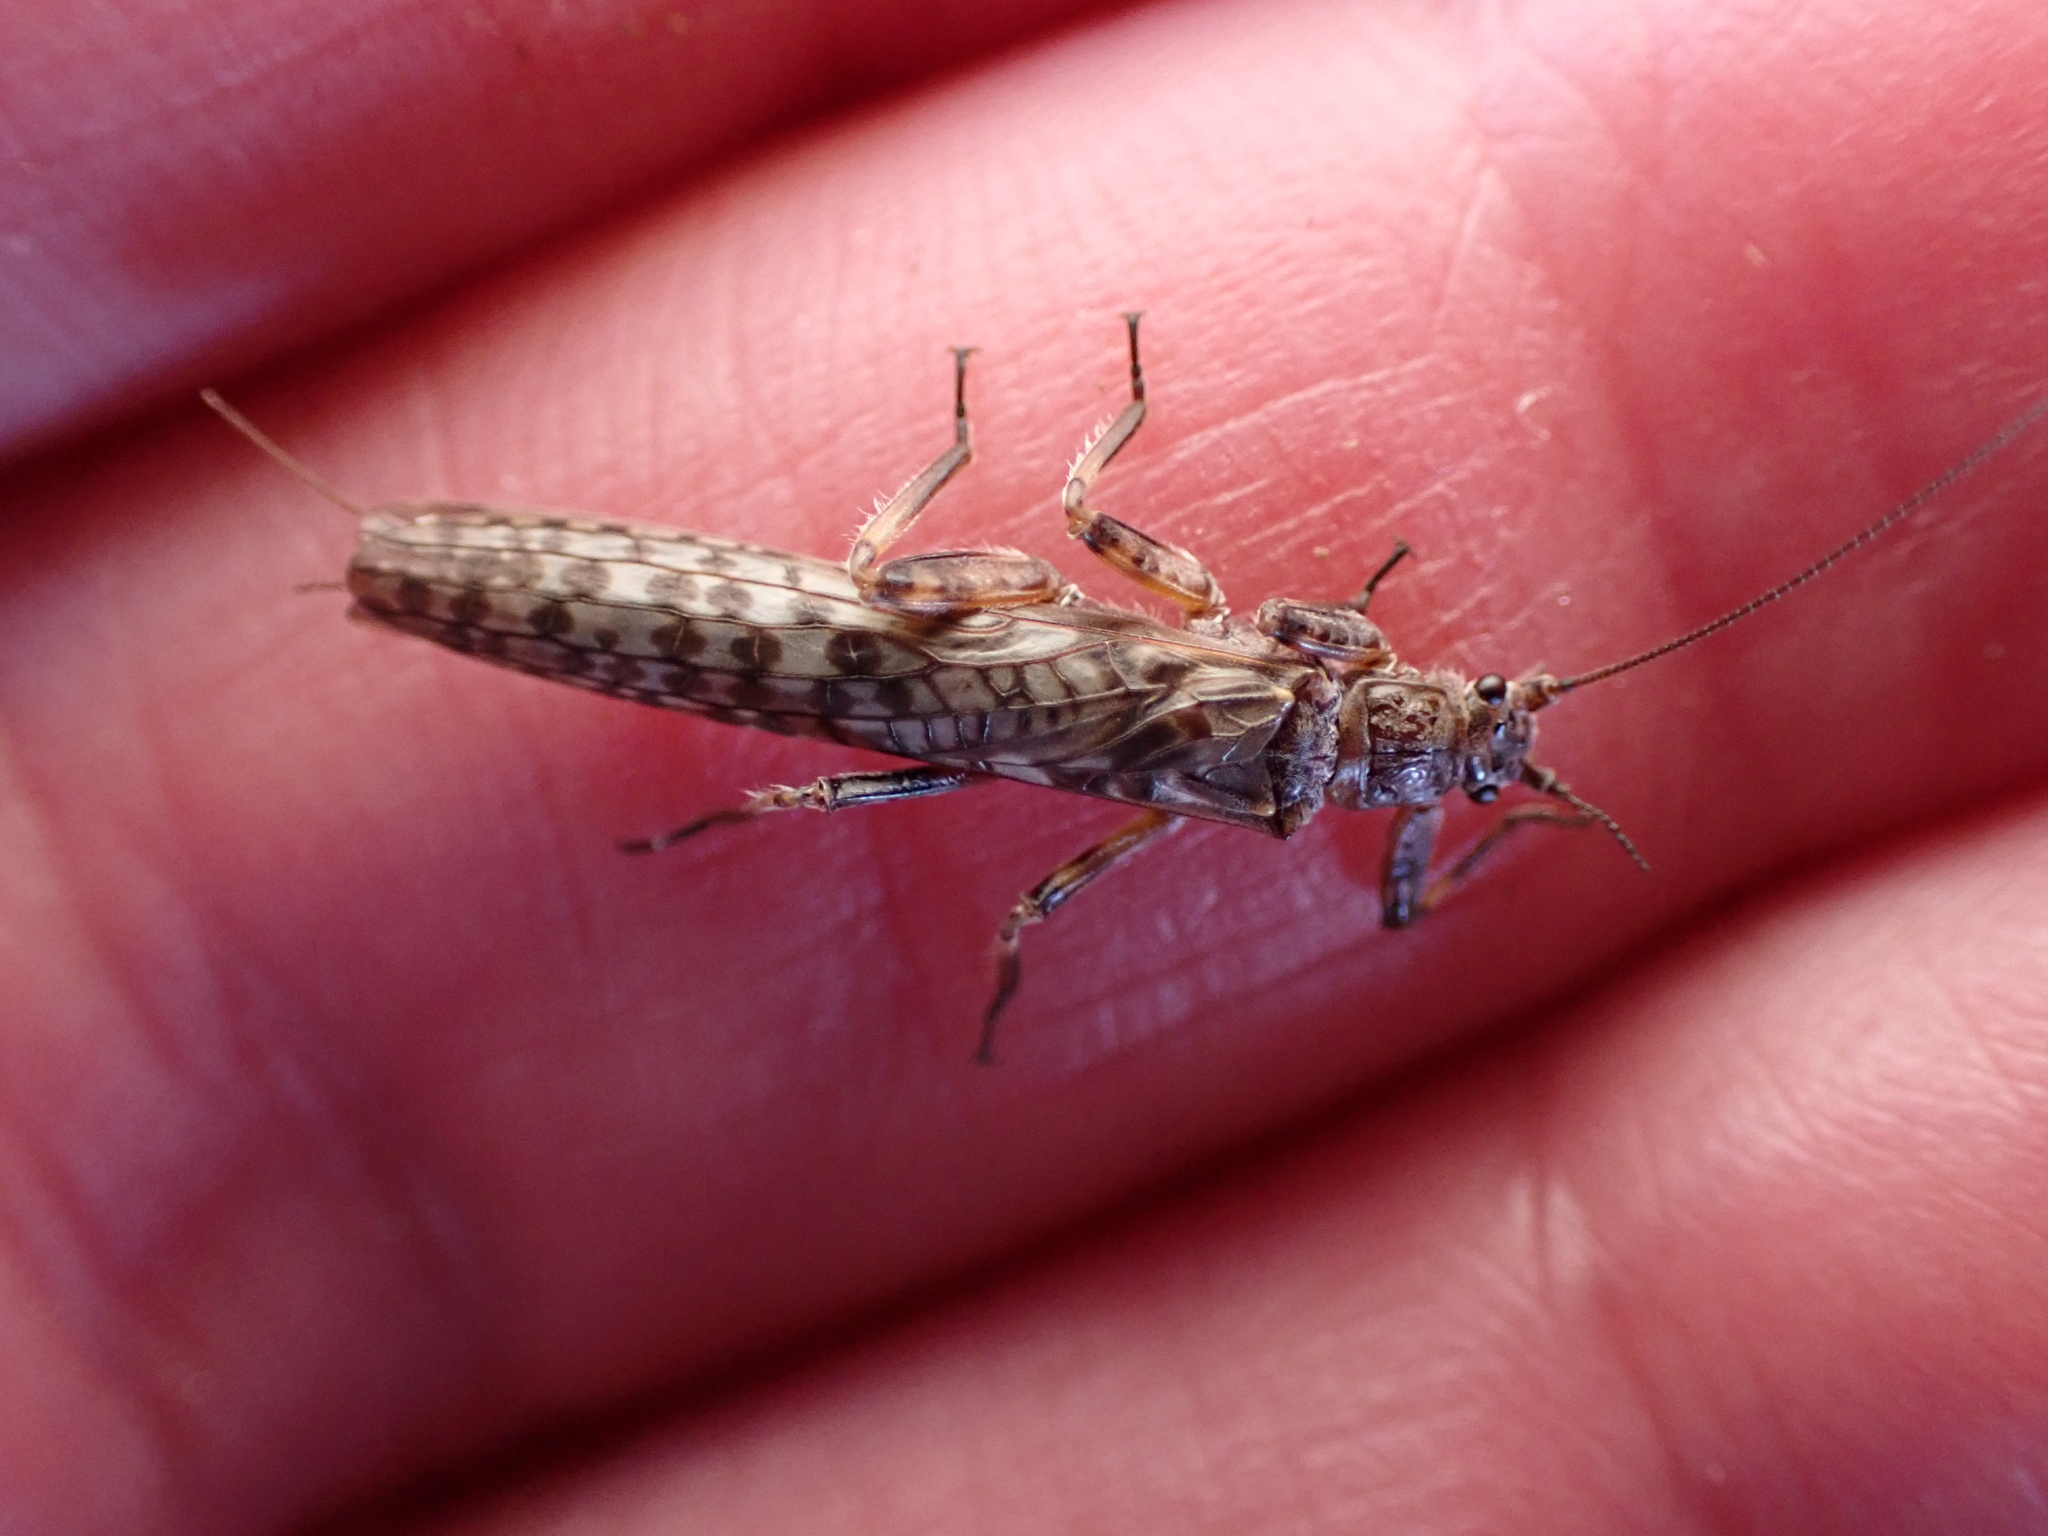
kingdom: Animalia
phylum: Arthropoda
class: Insecta
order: Plecoptera
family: Gripopterygidae
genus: Zelandoperla
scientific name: Zelandoperla agnetis
